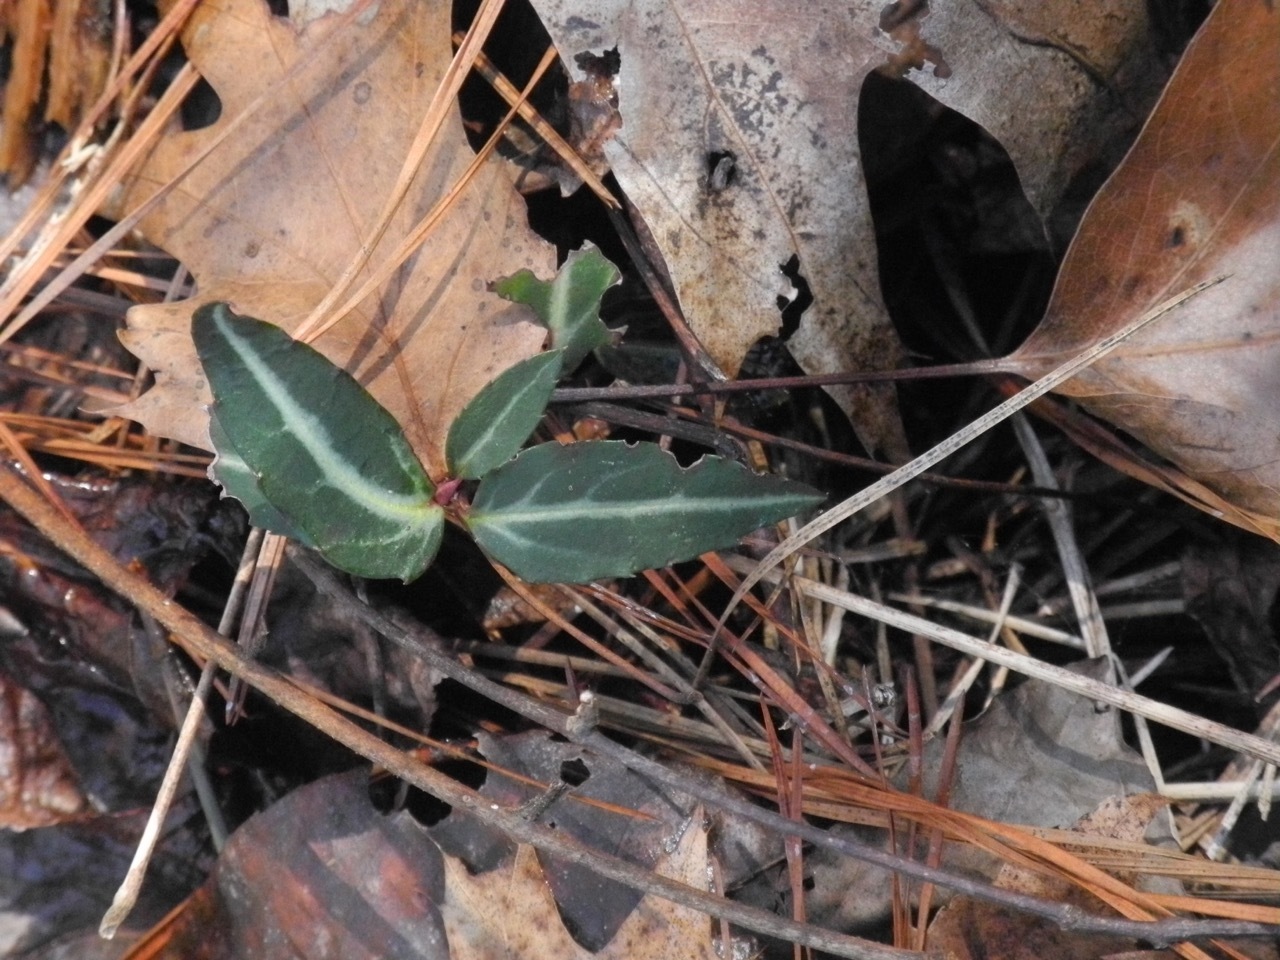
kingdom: Plantae
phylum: Tracheophyta
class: Magnoliopsida
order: Ericales
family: Ericaceae
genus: Chimaphila
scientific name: Chimaphila maculata
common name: Spotted pipsissewa
